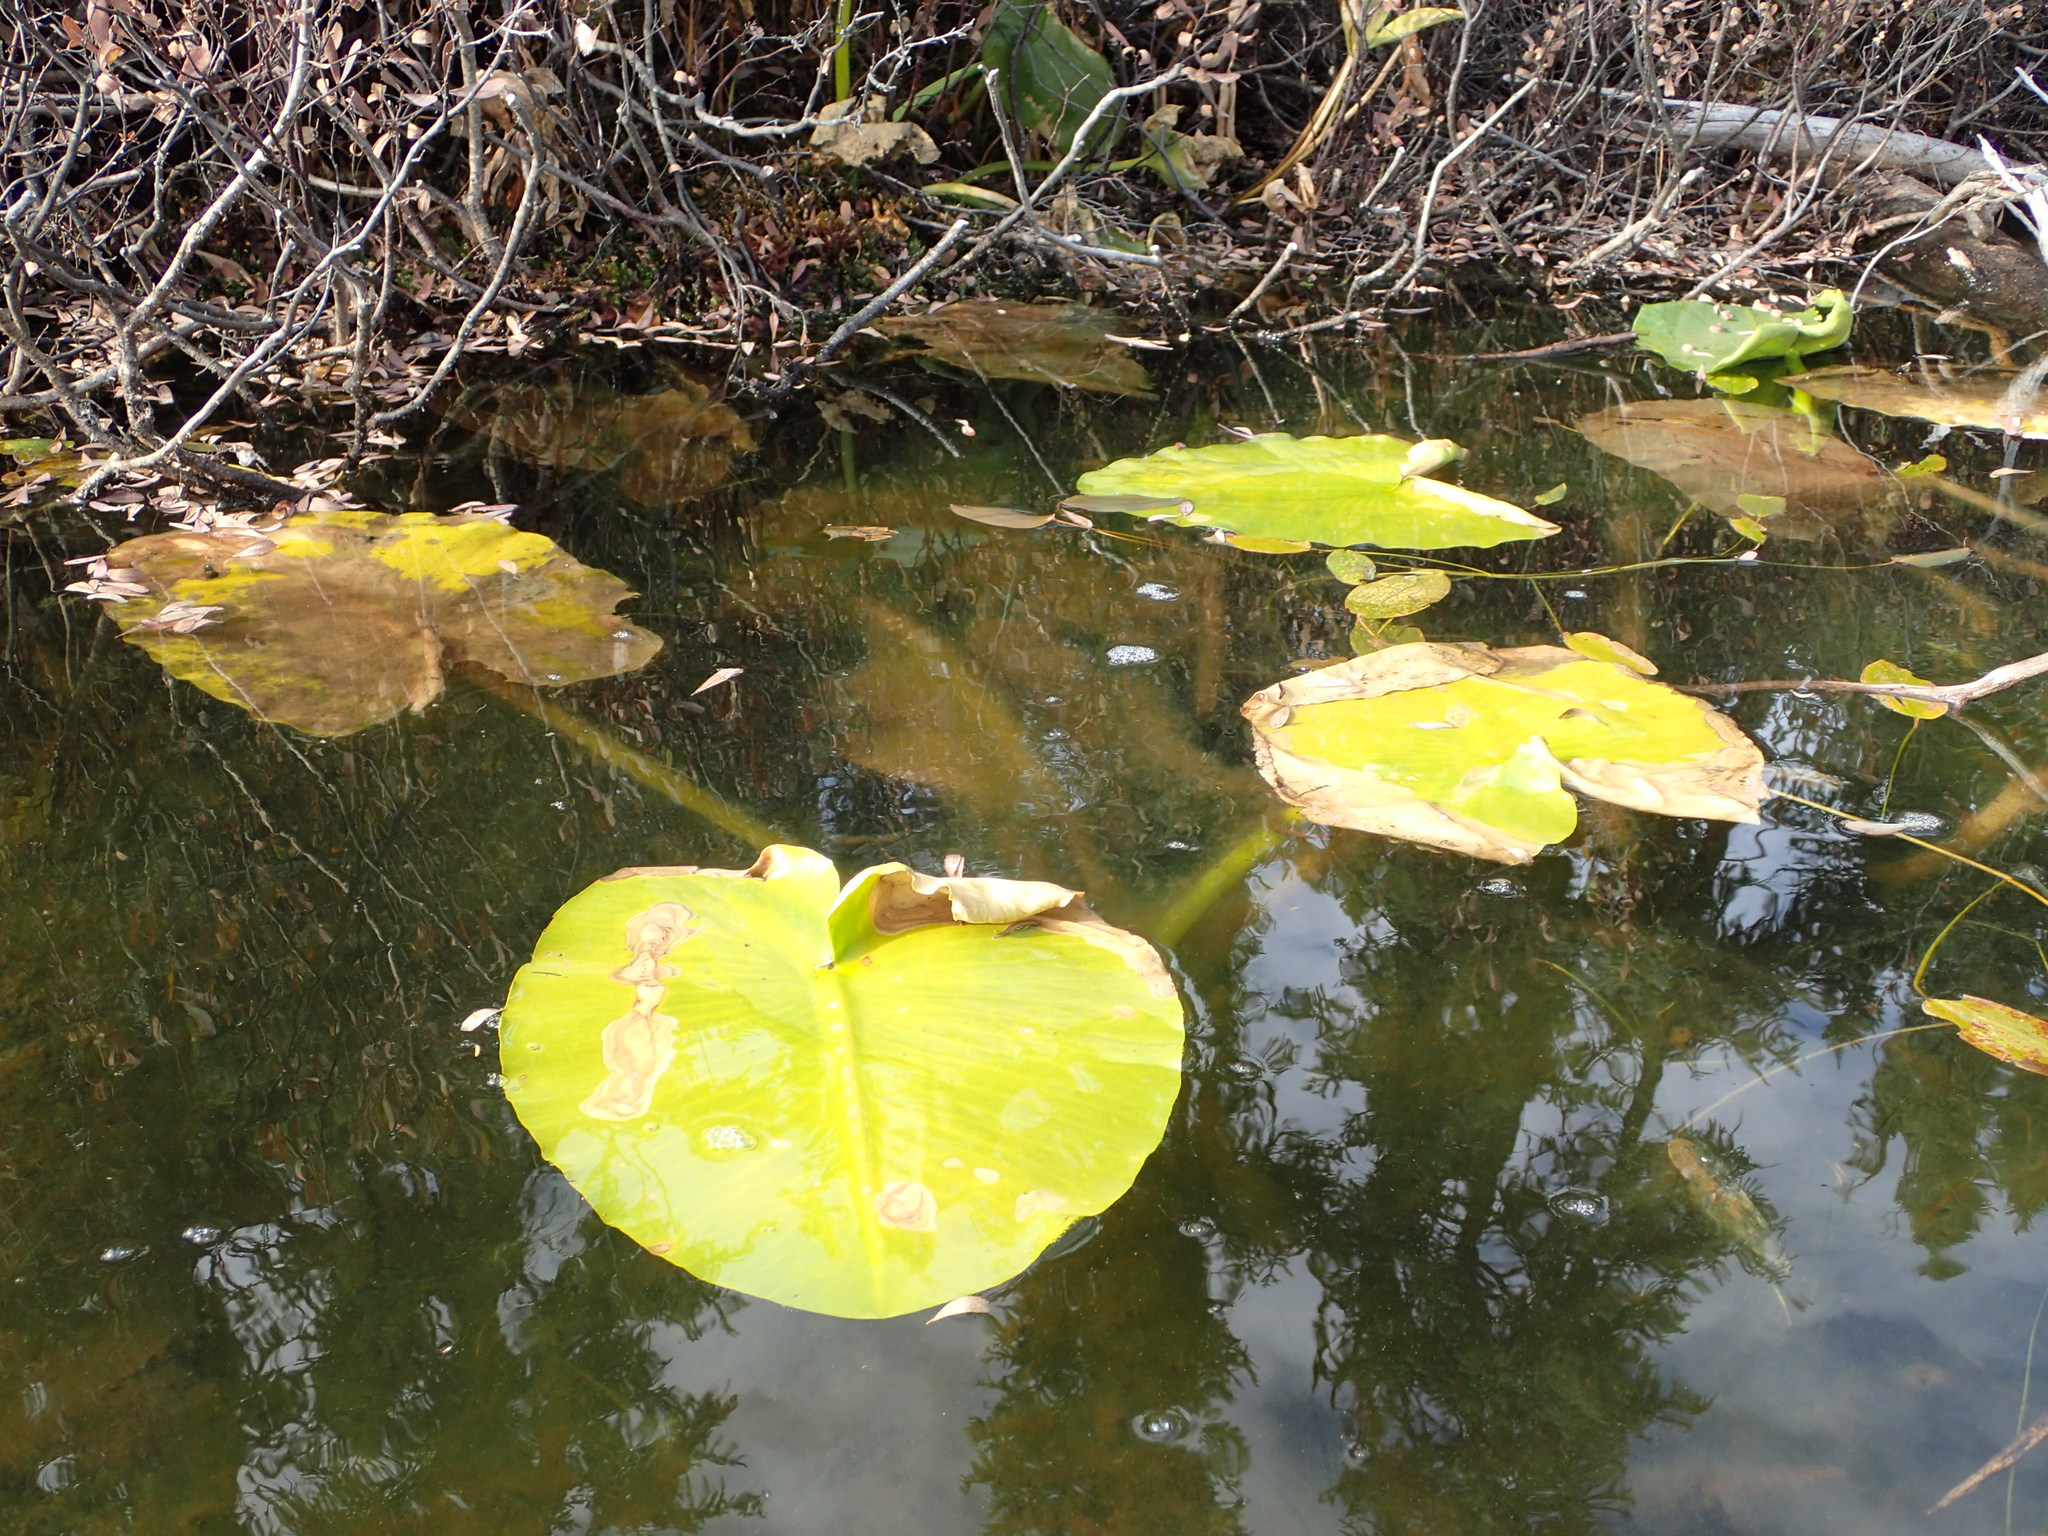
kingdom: Plantae
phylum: Tracheophyta
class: Magnoliopsida
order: Nymphaeales
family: Nymphaeaceae
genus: Nuphar
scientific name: Nuphar polysepala
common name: Rocky mountain cow-lily
